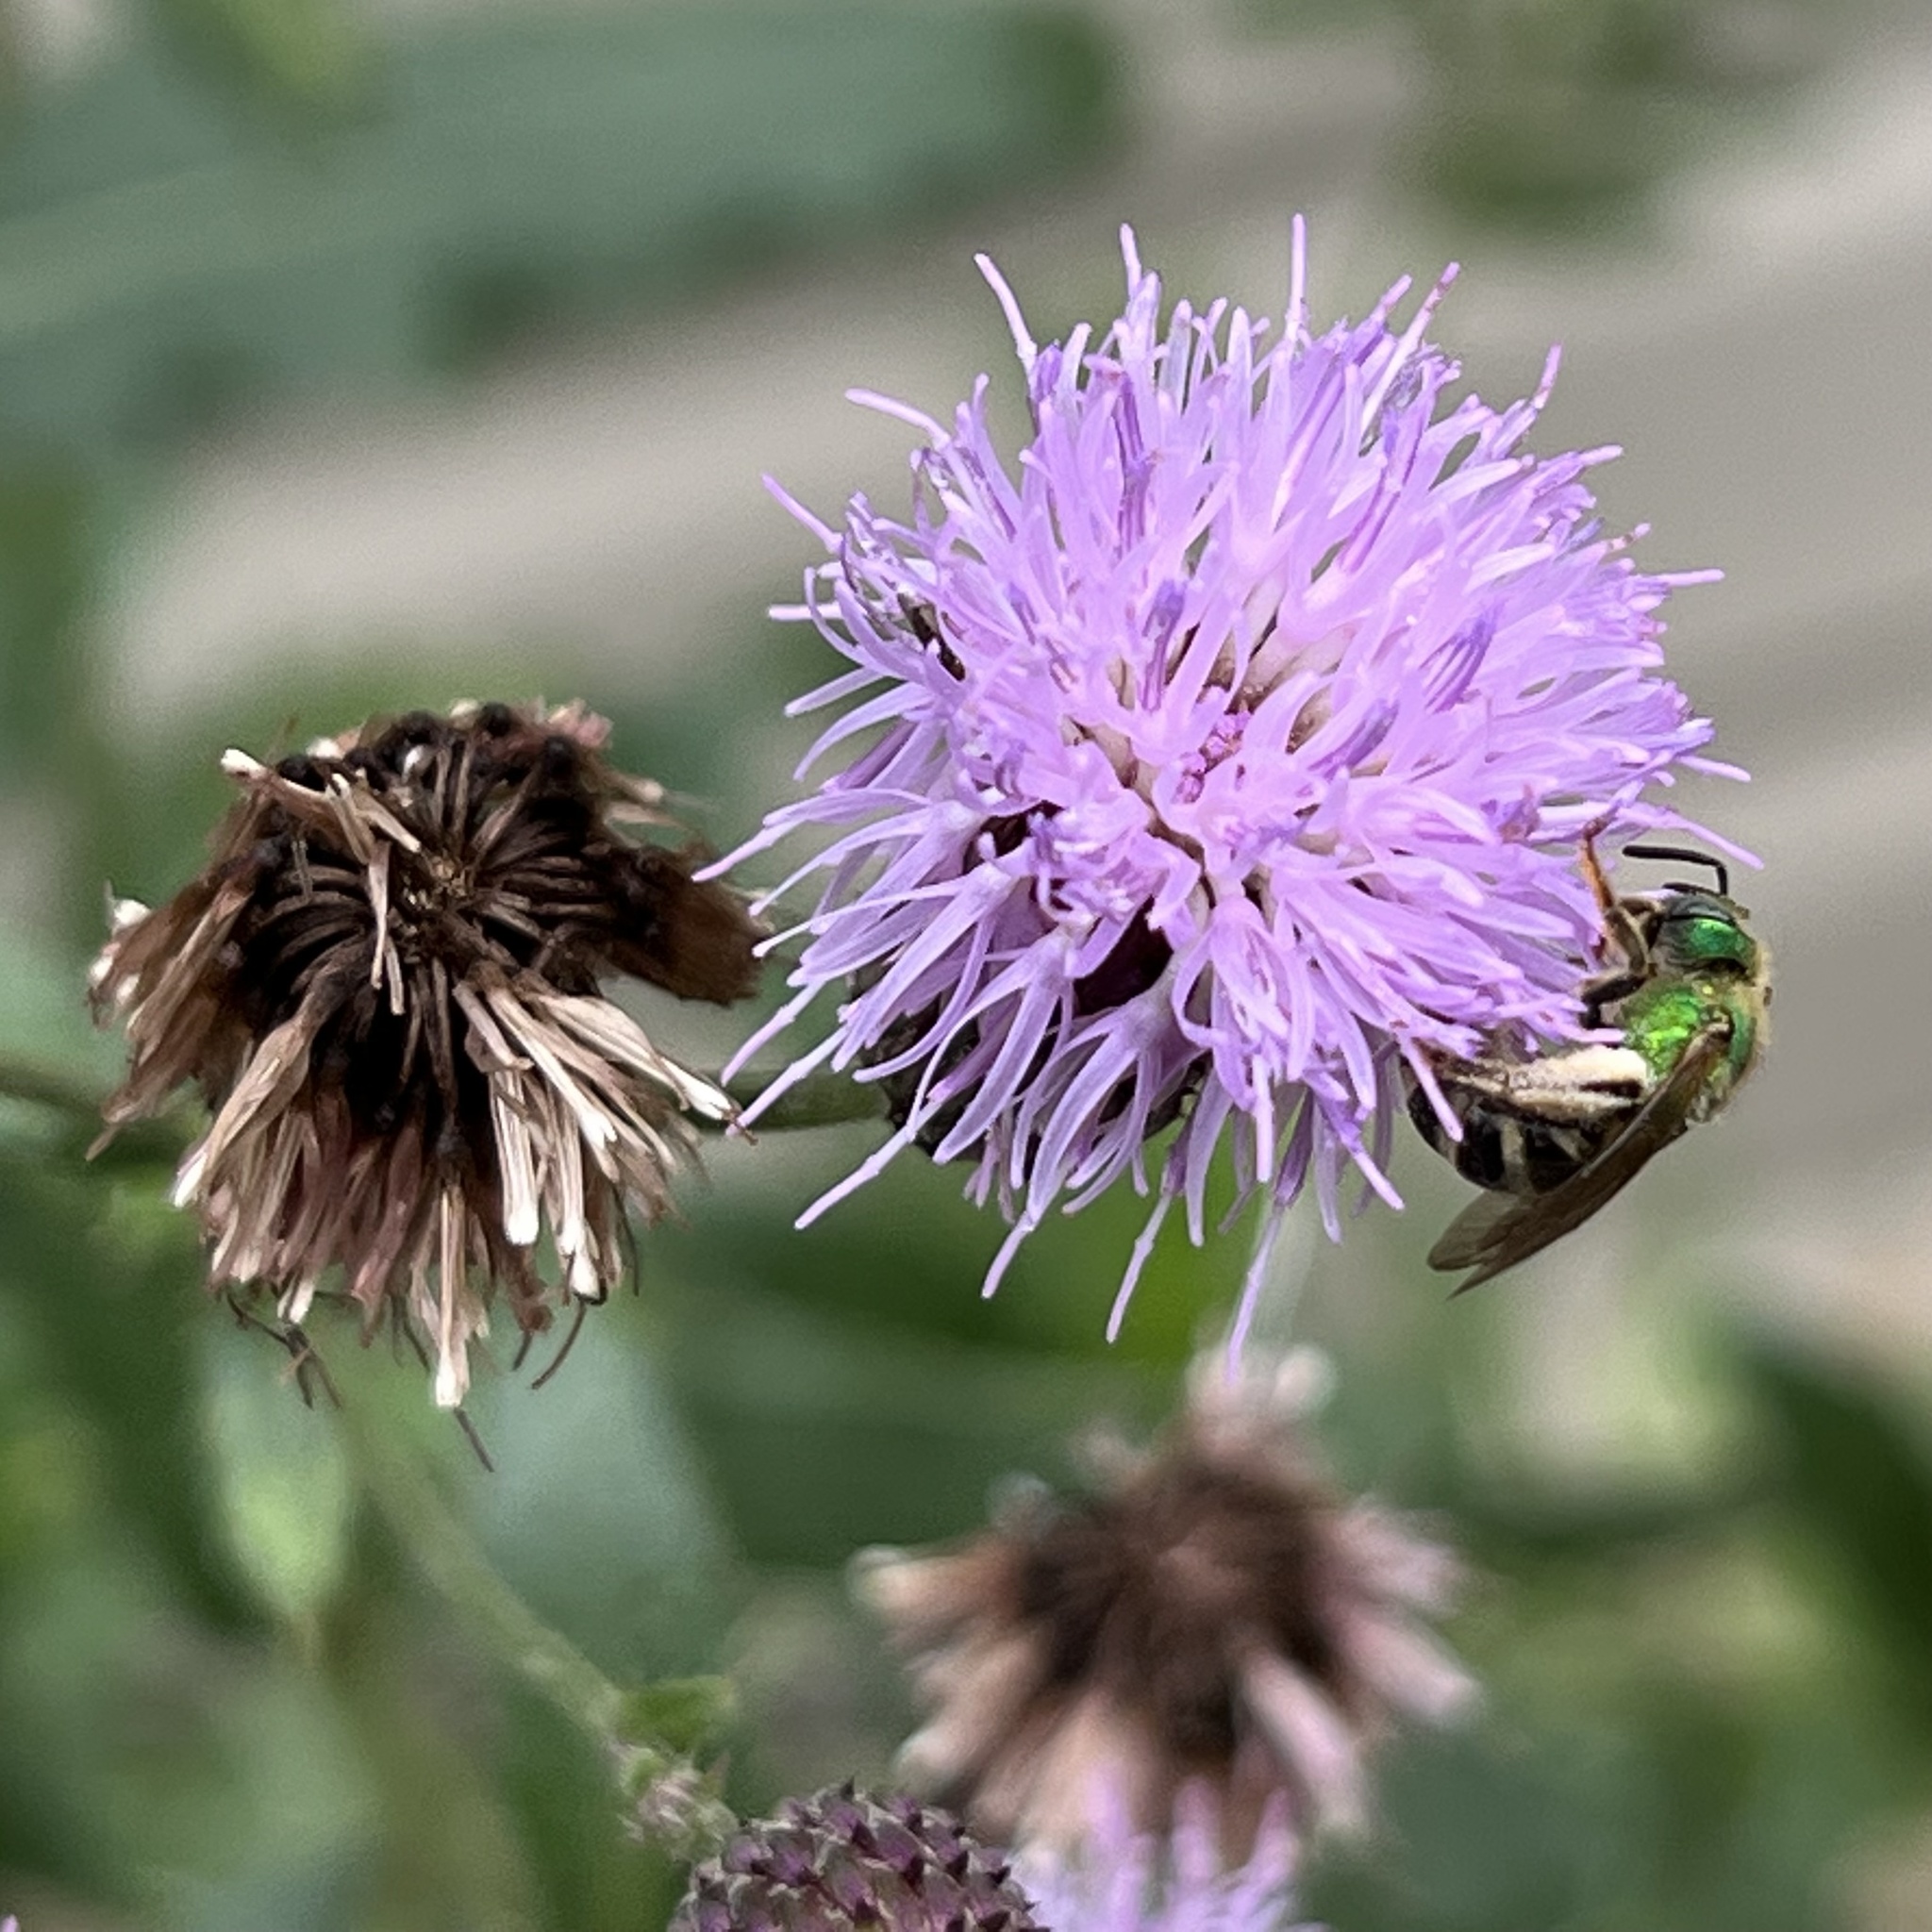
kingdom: Animalia
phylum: Arthropoda
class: Insecta
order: Hymenoptera
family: Halictidae
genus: Agapostemon
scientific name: Agapostemon virescens
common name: Bicolored striped sweat bee
